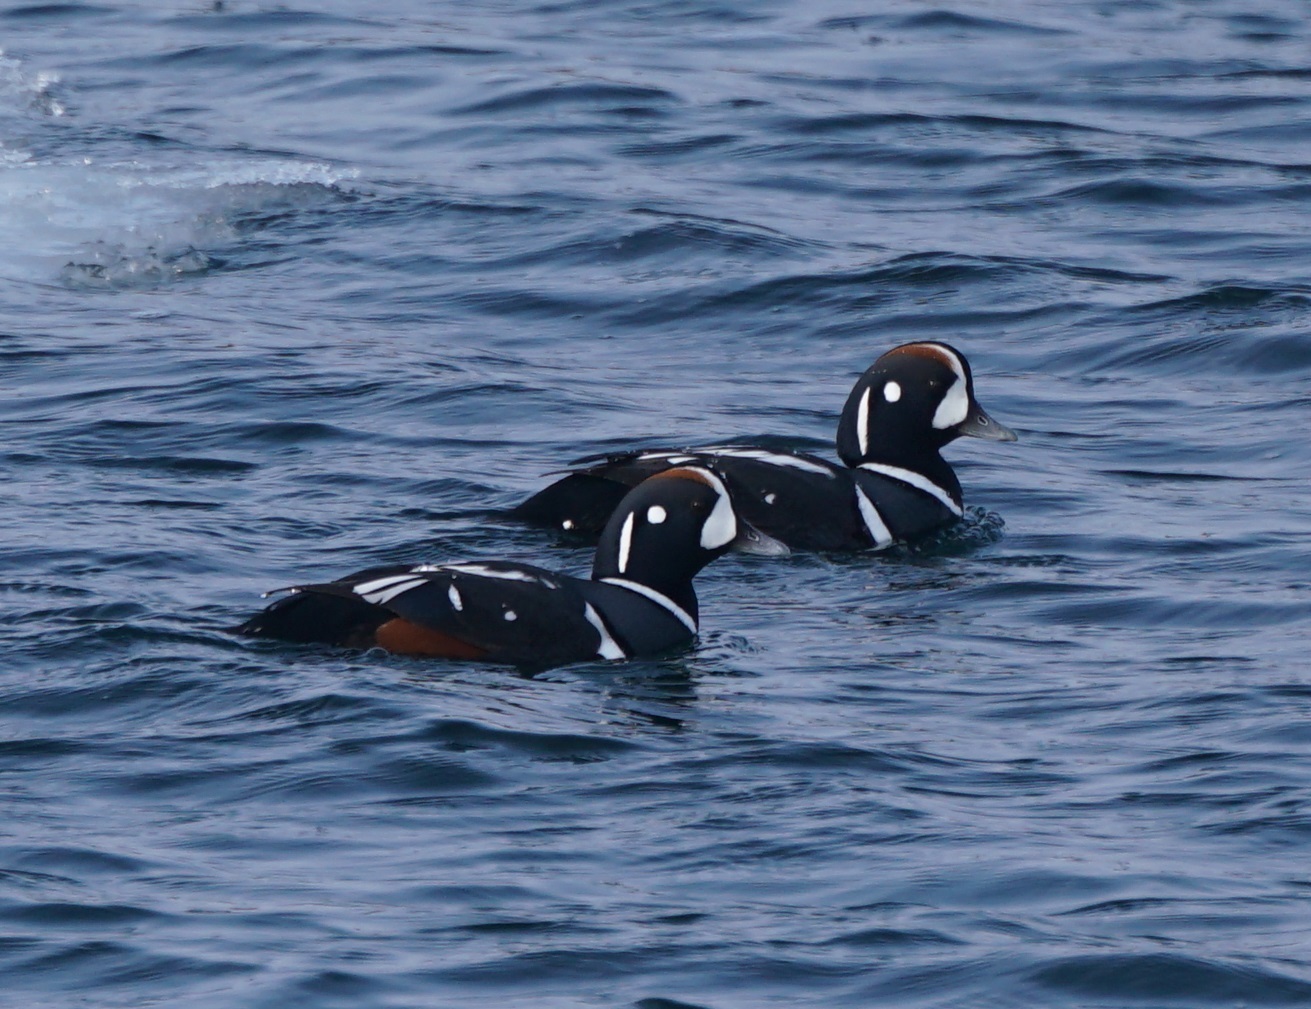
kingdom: Animalia
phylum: Chordata
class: Aves
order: Anseriformes
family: Anatidae
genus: Histrionicus
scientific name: Histrionicus histrionicus
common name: Harlequin duck
